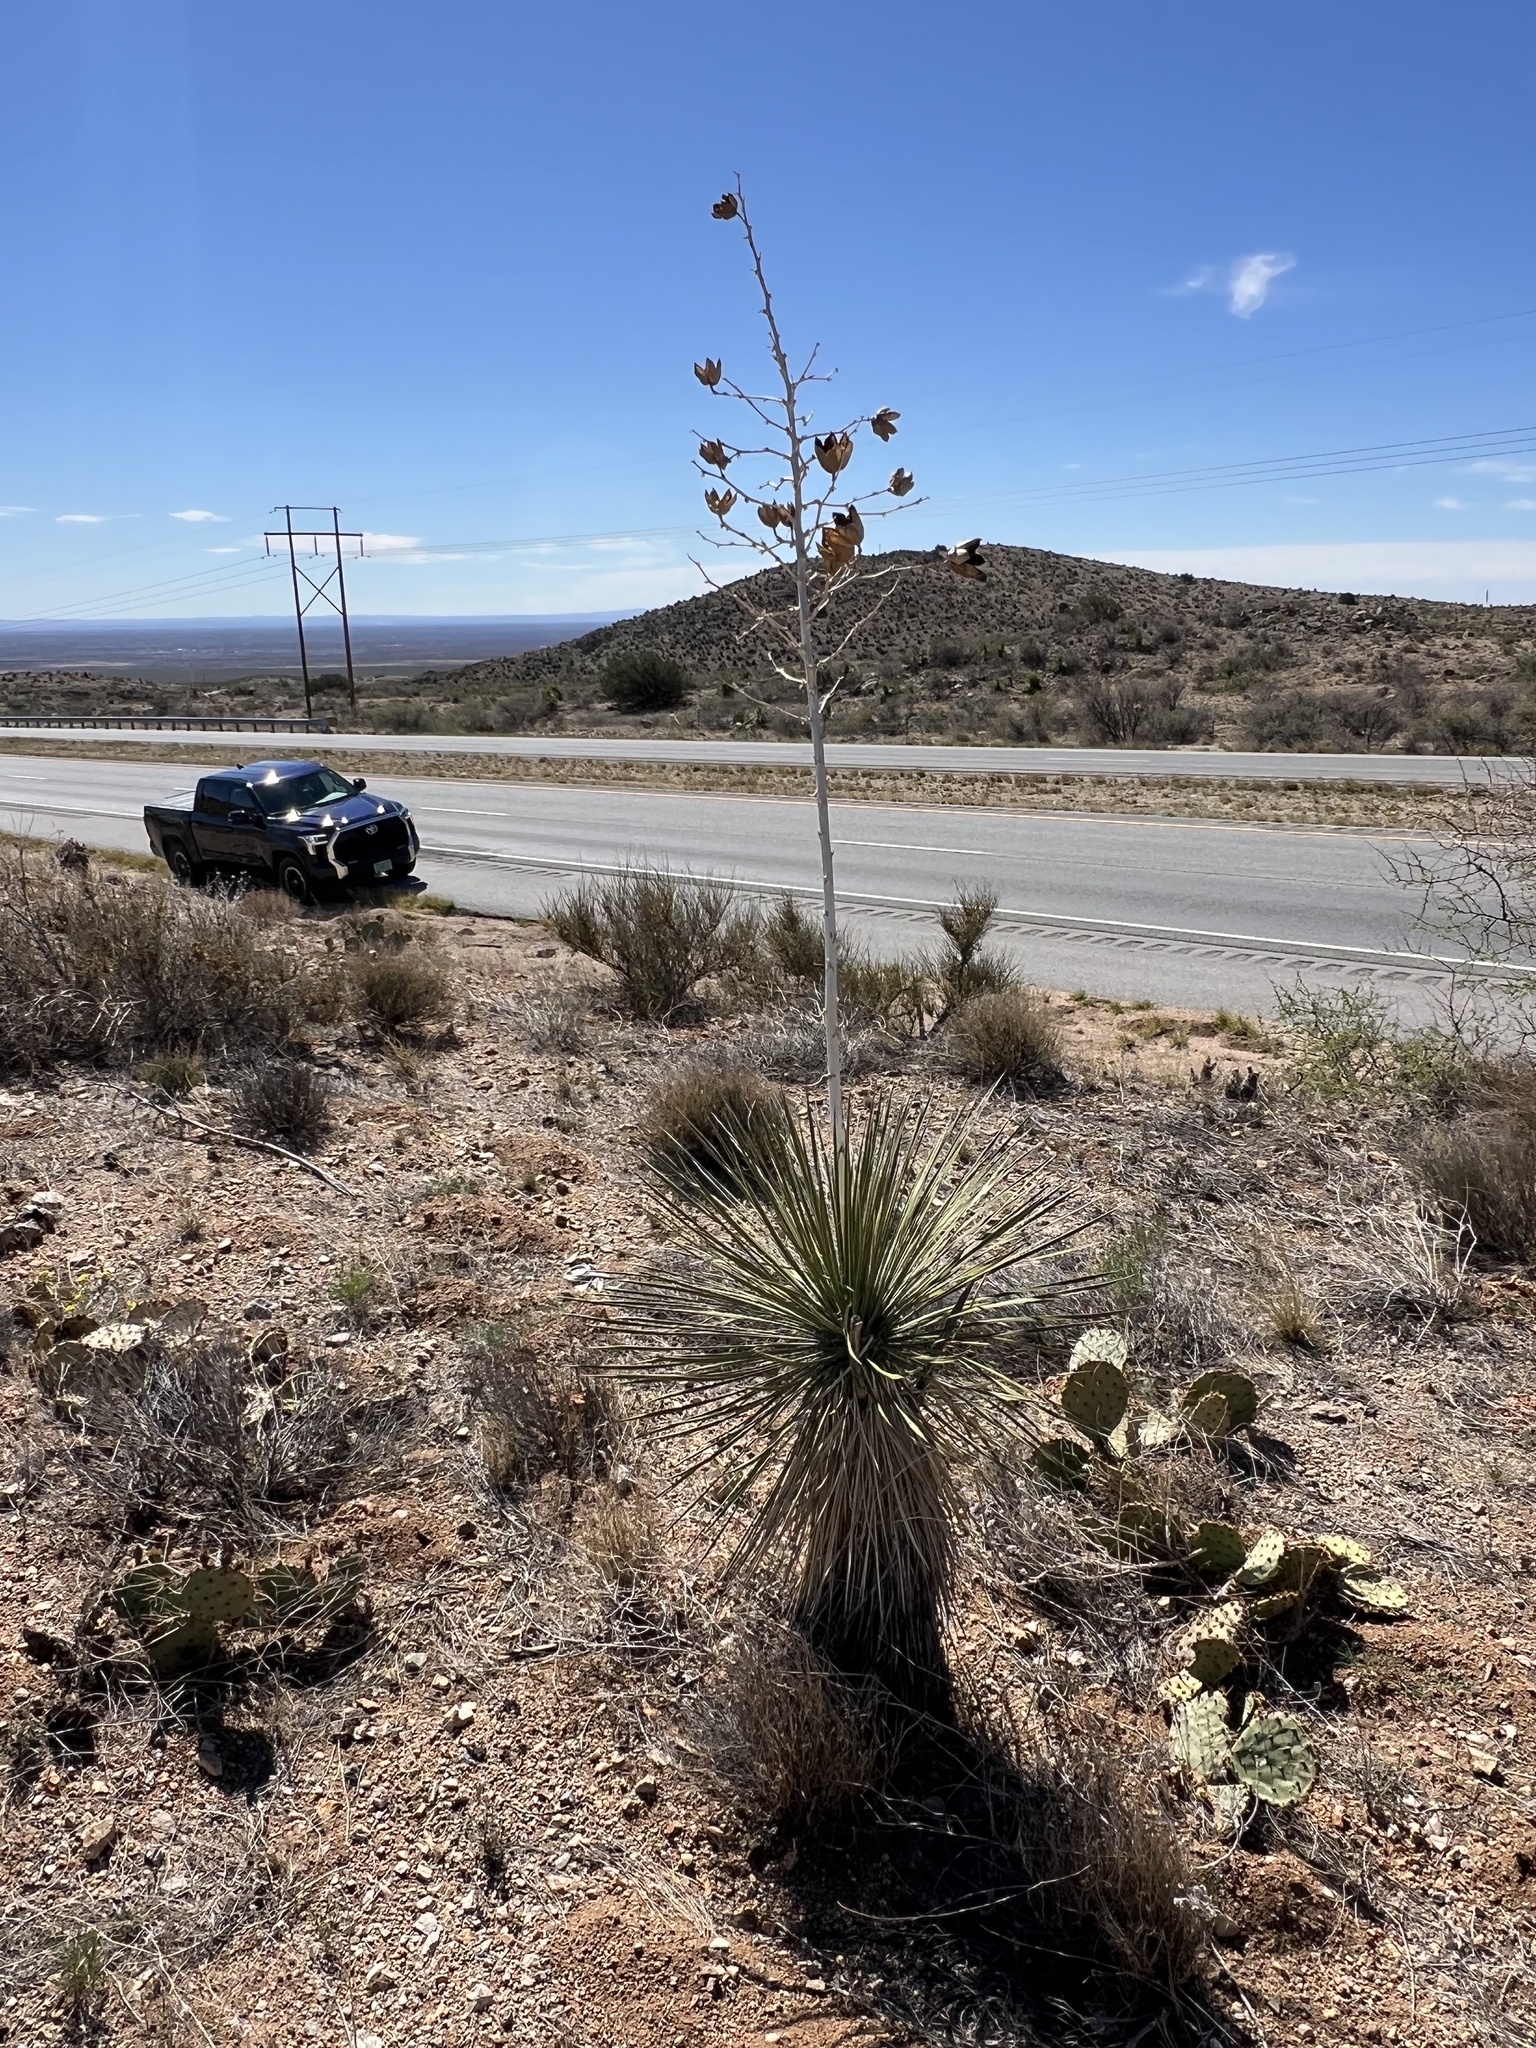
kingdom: Plantae
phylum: Tracheophyta
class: Liliopsida
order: Asparagales
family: Asparagaceae
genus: Yucca
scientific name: Yucca elata
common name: Palmella
